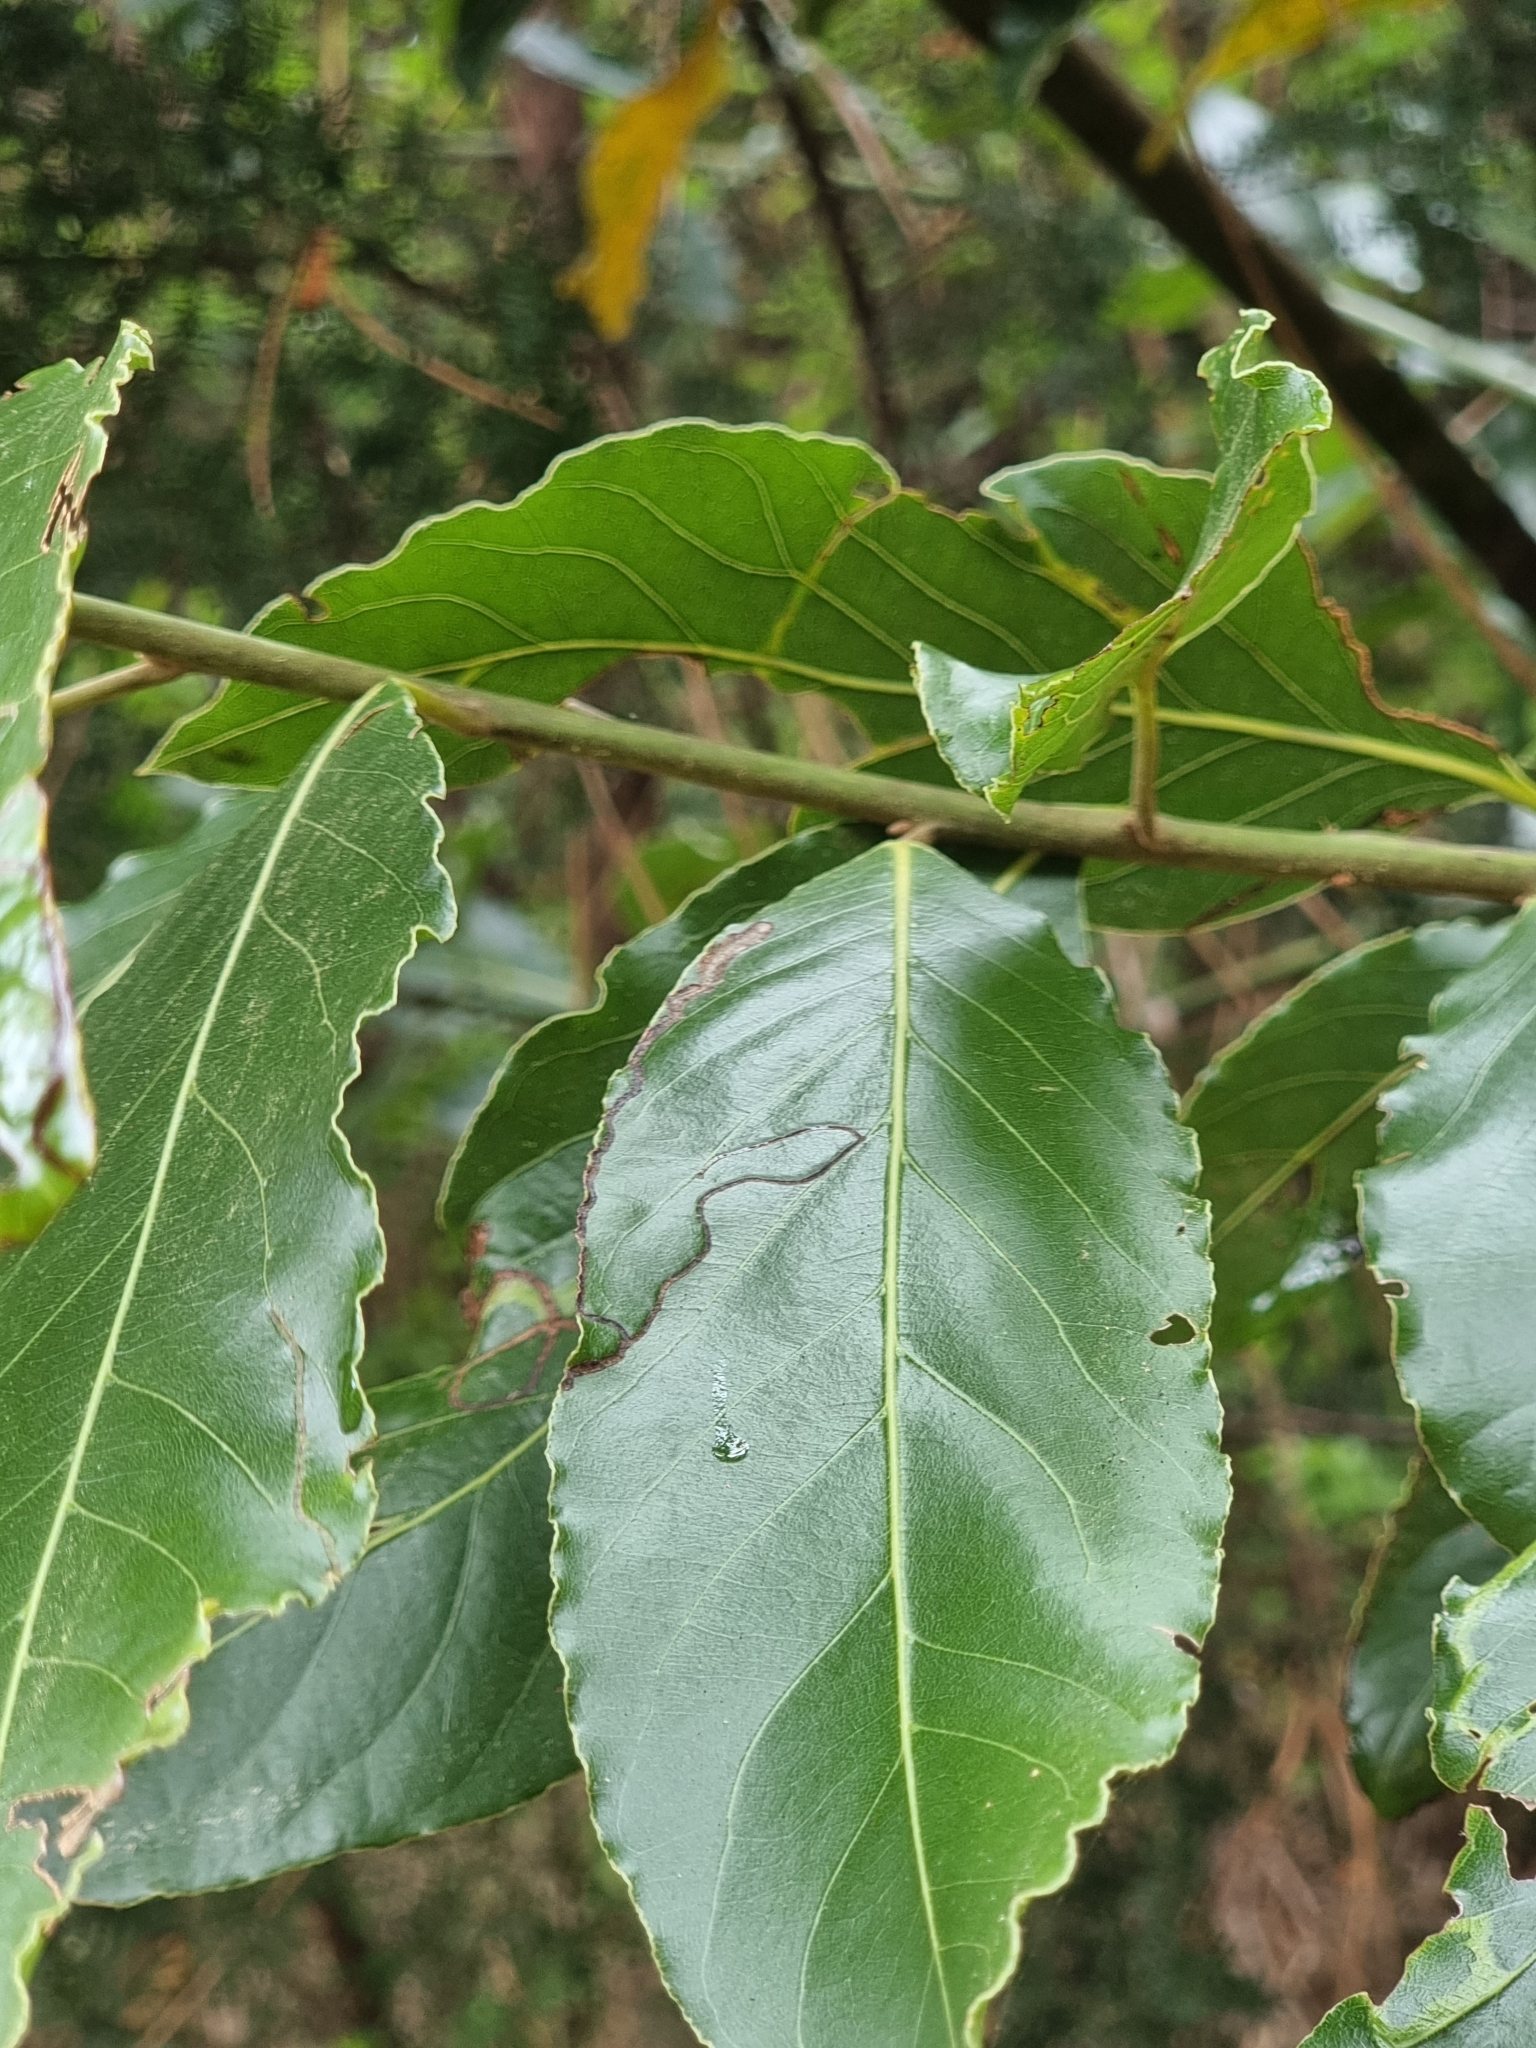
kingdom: Plantae
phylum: Tracheophyta
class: Magnoliopsida
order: Laurales
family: Lauraceae
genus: Laurus
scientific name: Laurus novocanariensis
